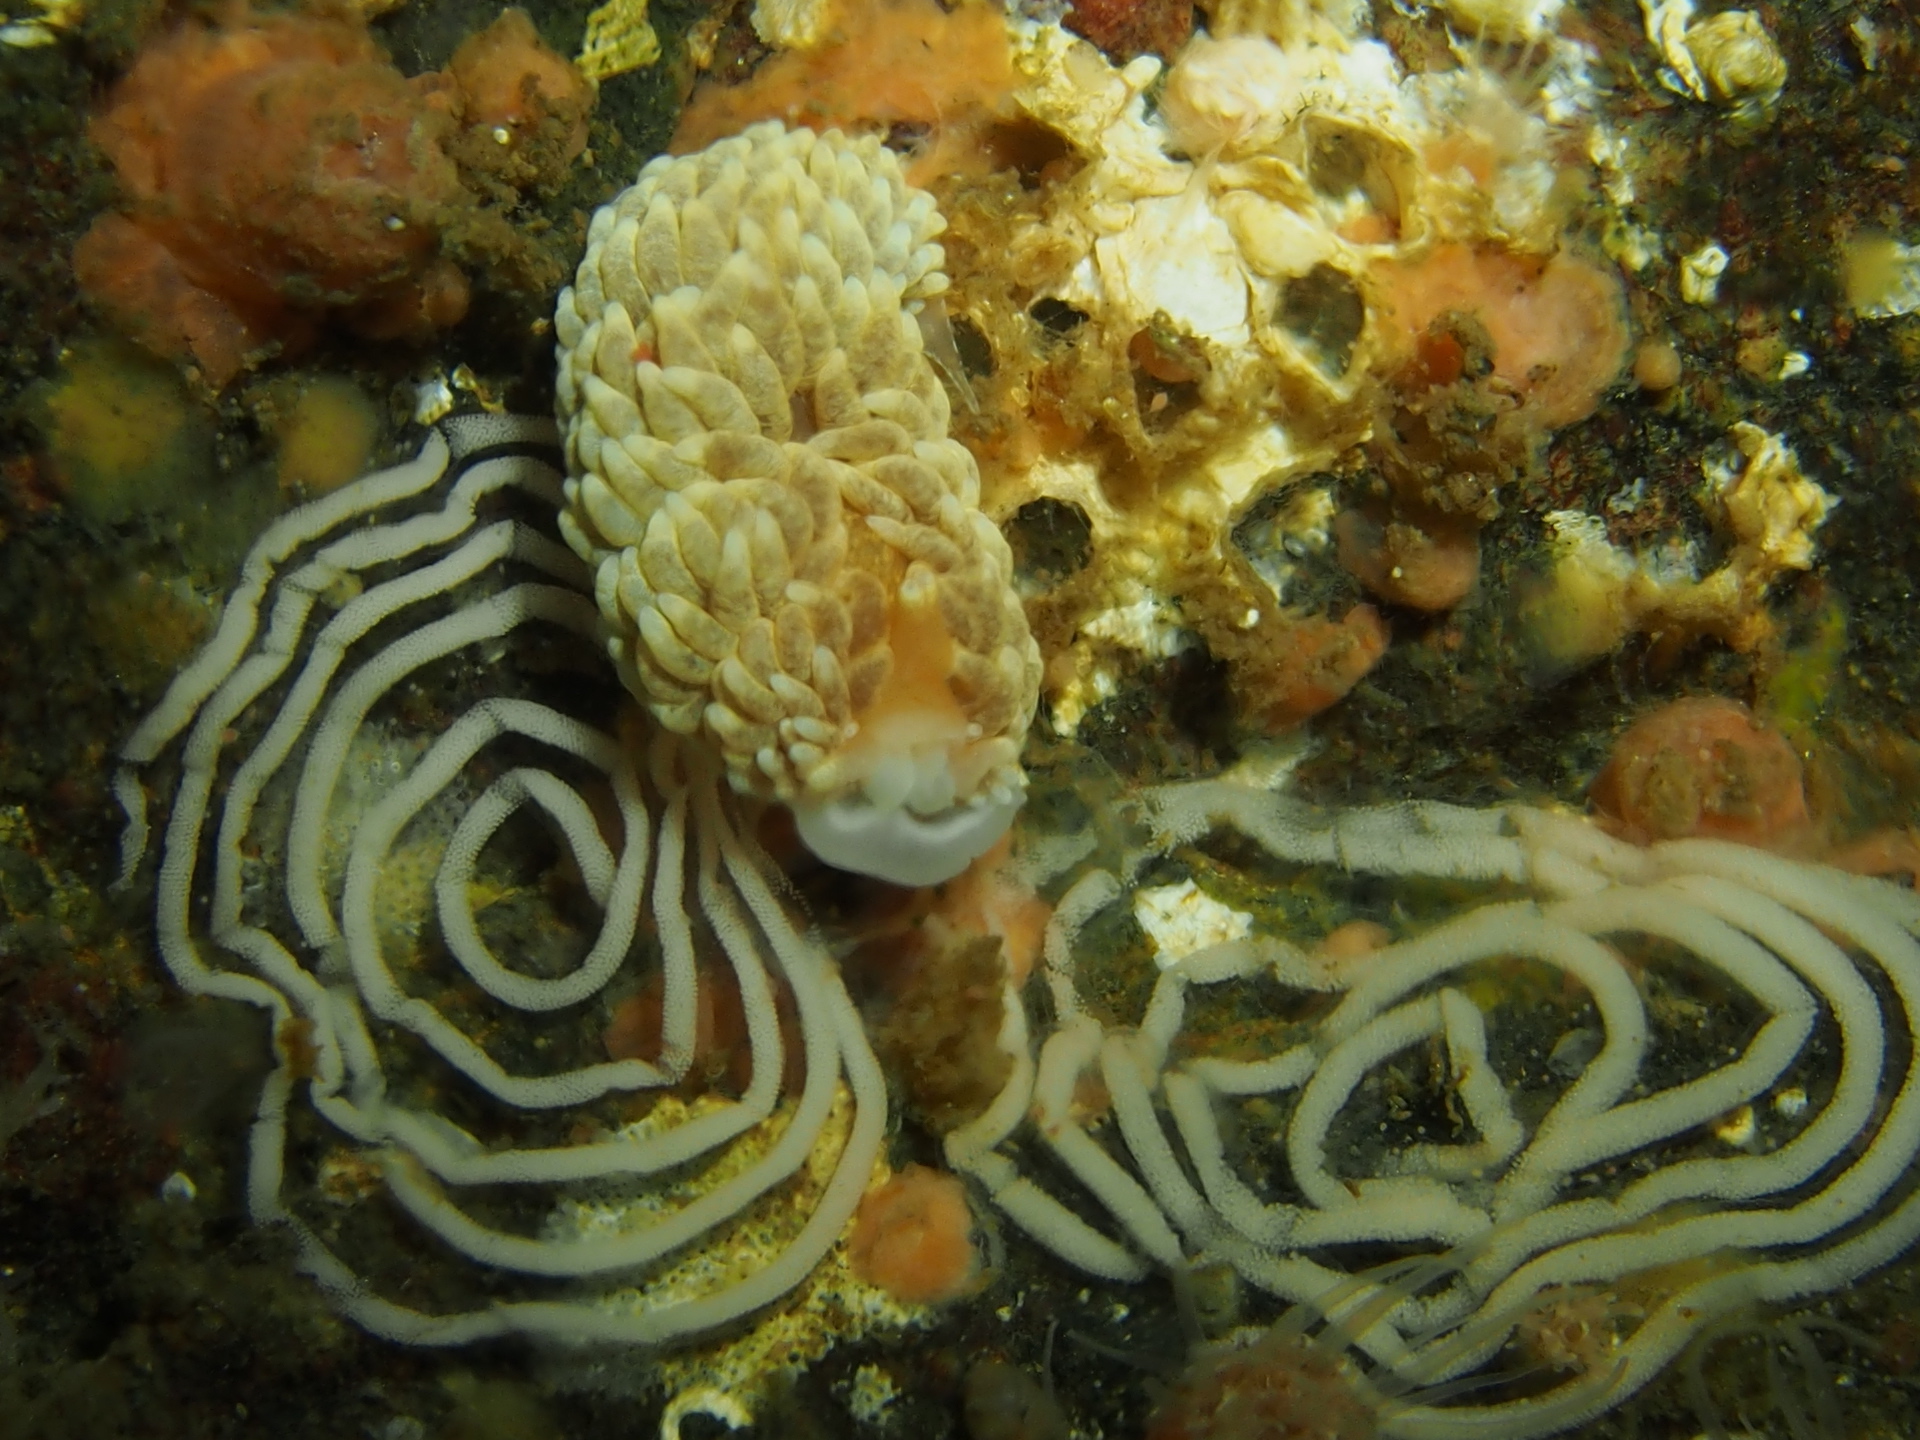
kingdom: Animalia
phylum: Mollusca
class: Gastropoda
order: Nudibranchia
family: Aeolidiidae
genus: Aeolidiella
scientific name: Aeolidiella glauca
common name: Orange-brown aeolid
